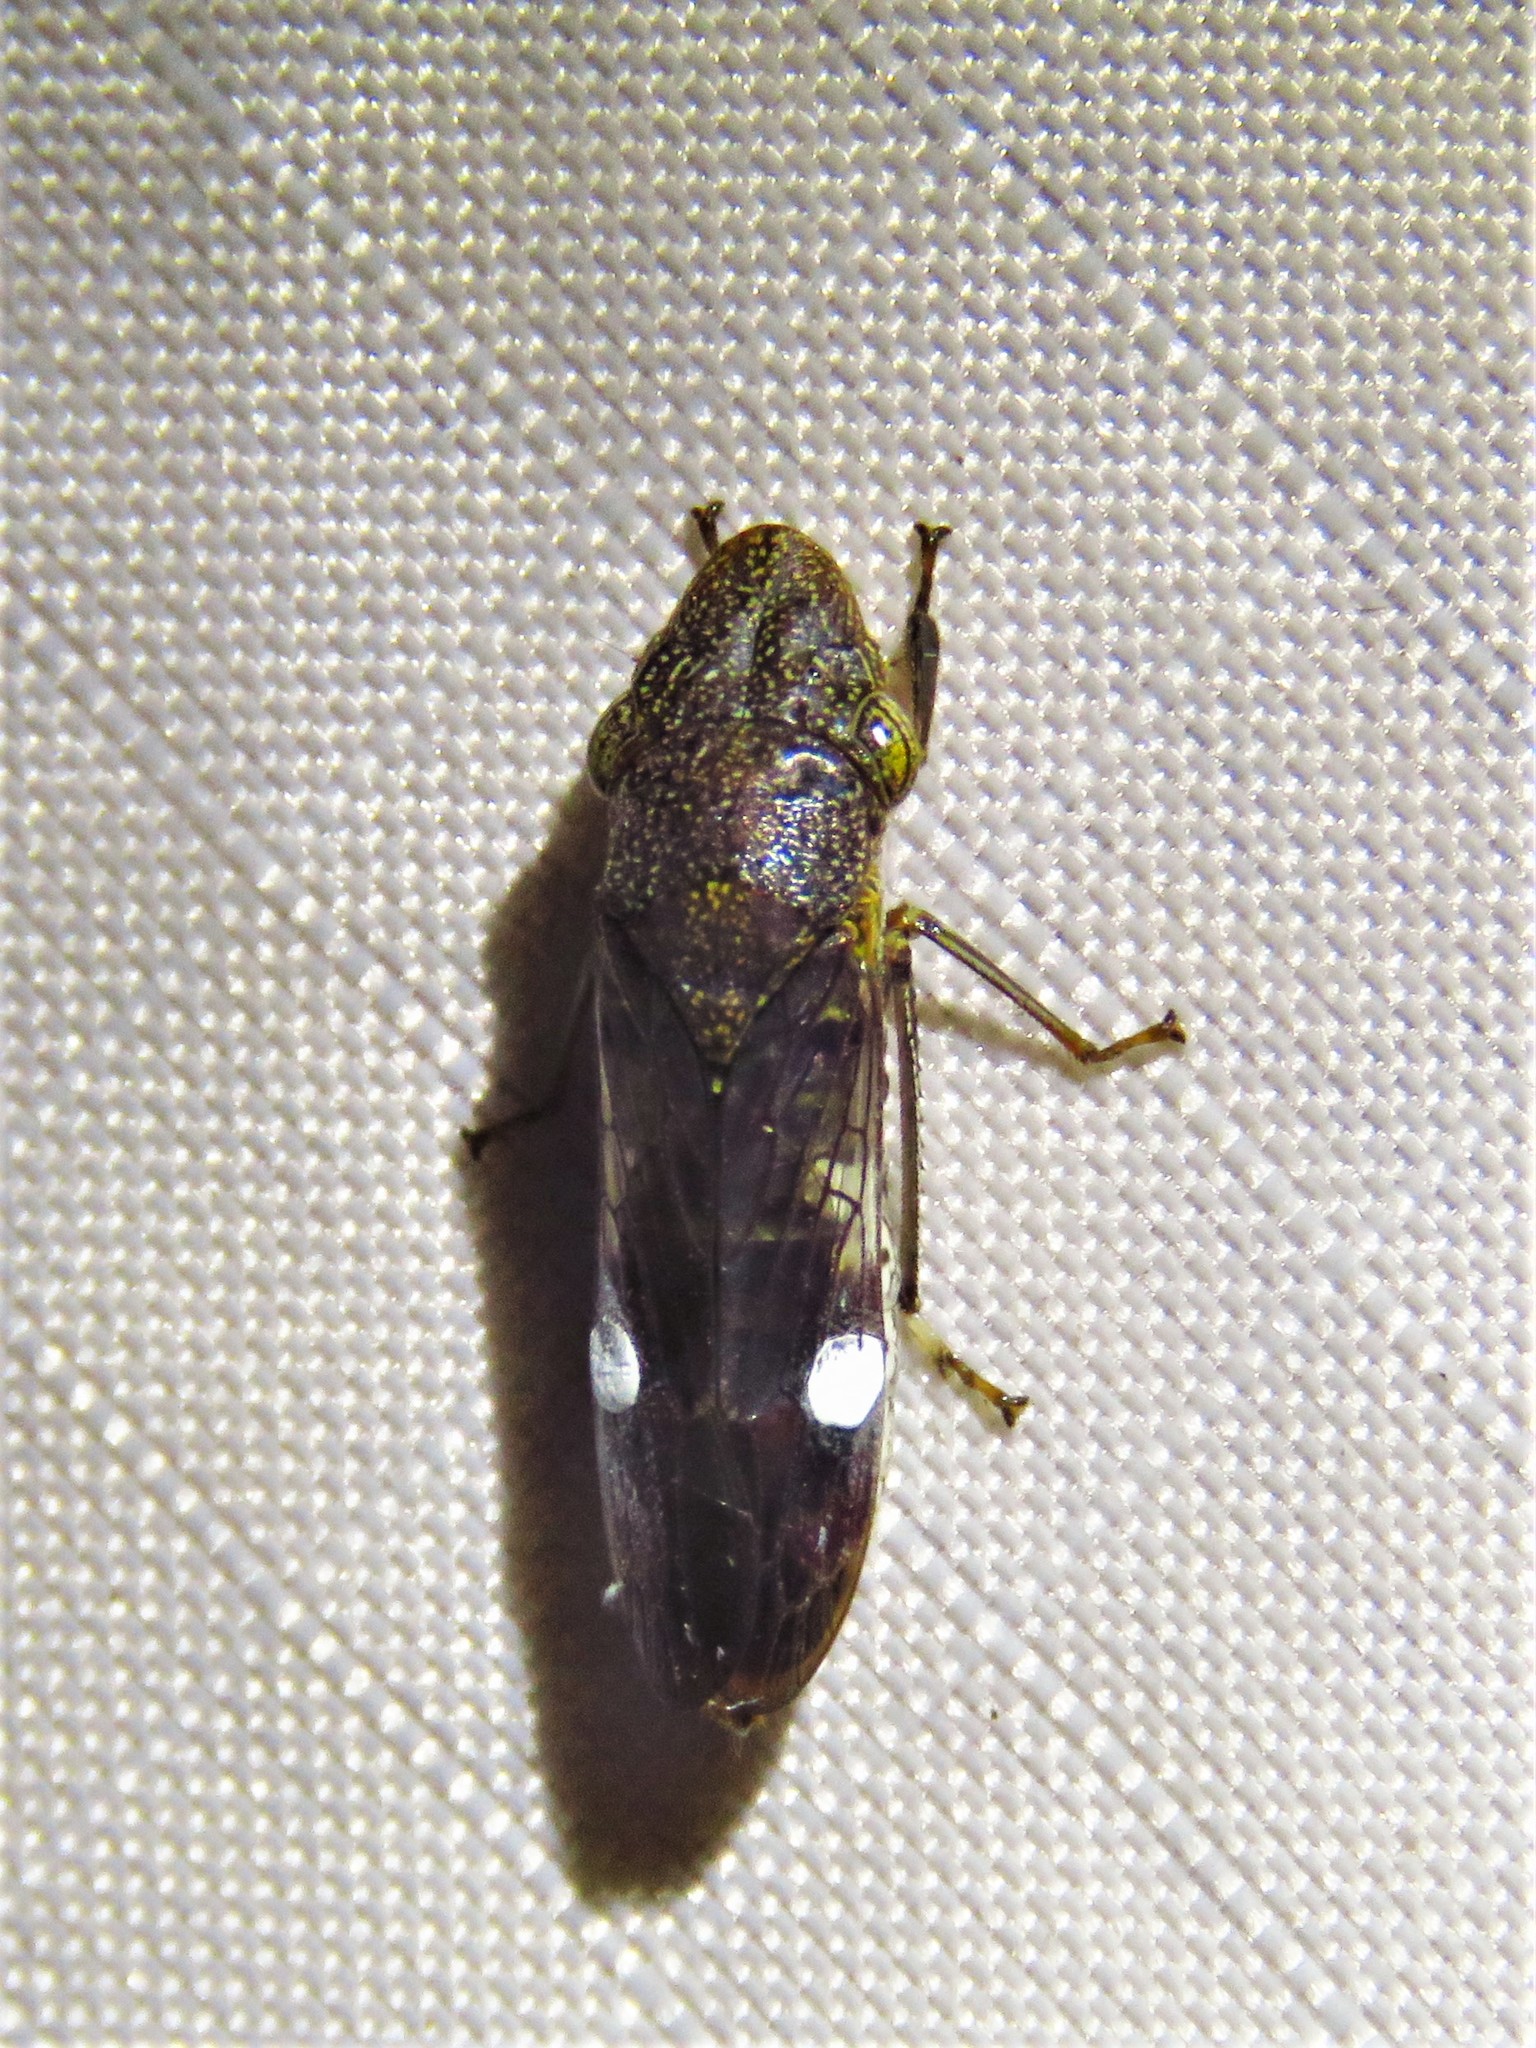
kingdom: Animalia
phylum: Arthropoda
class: Insecta
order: Hemiptera
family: Cicadellidae
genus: Homalodisca
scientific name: Homalodisca vitripennis
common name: Glassy-winged sharpshooter
